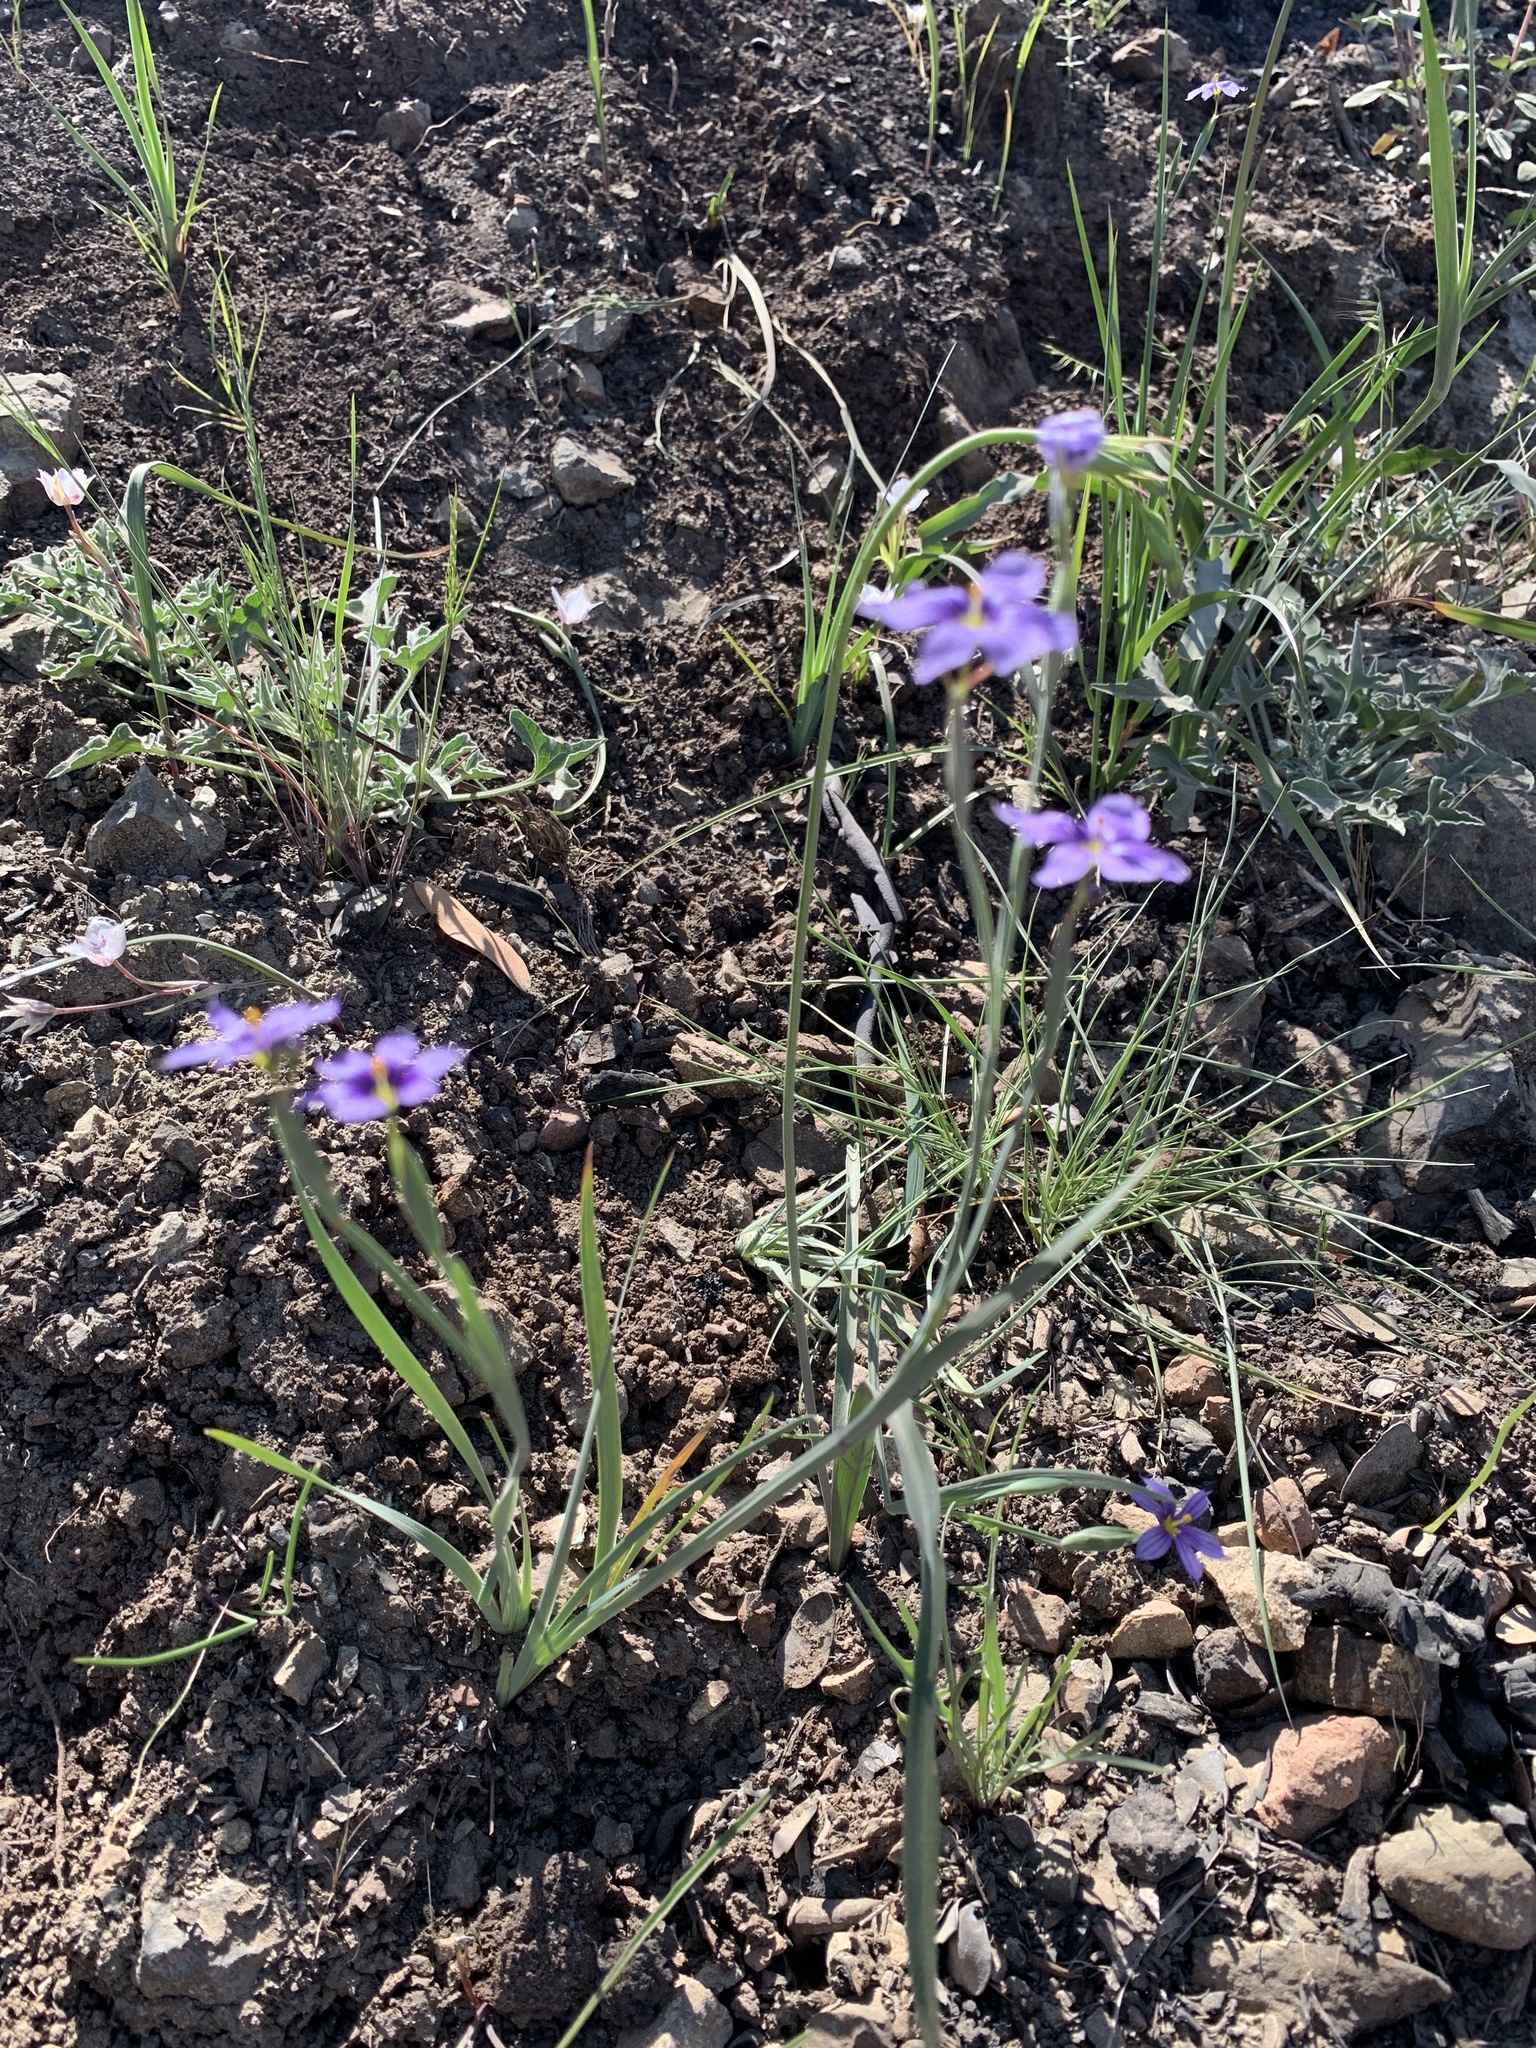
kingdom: Plantae
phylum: Tracheophyta
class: Liliopsida
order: Asparagales
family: Iridaceae
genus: Sisyrinchium
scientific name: Sisyrinchium bellum
